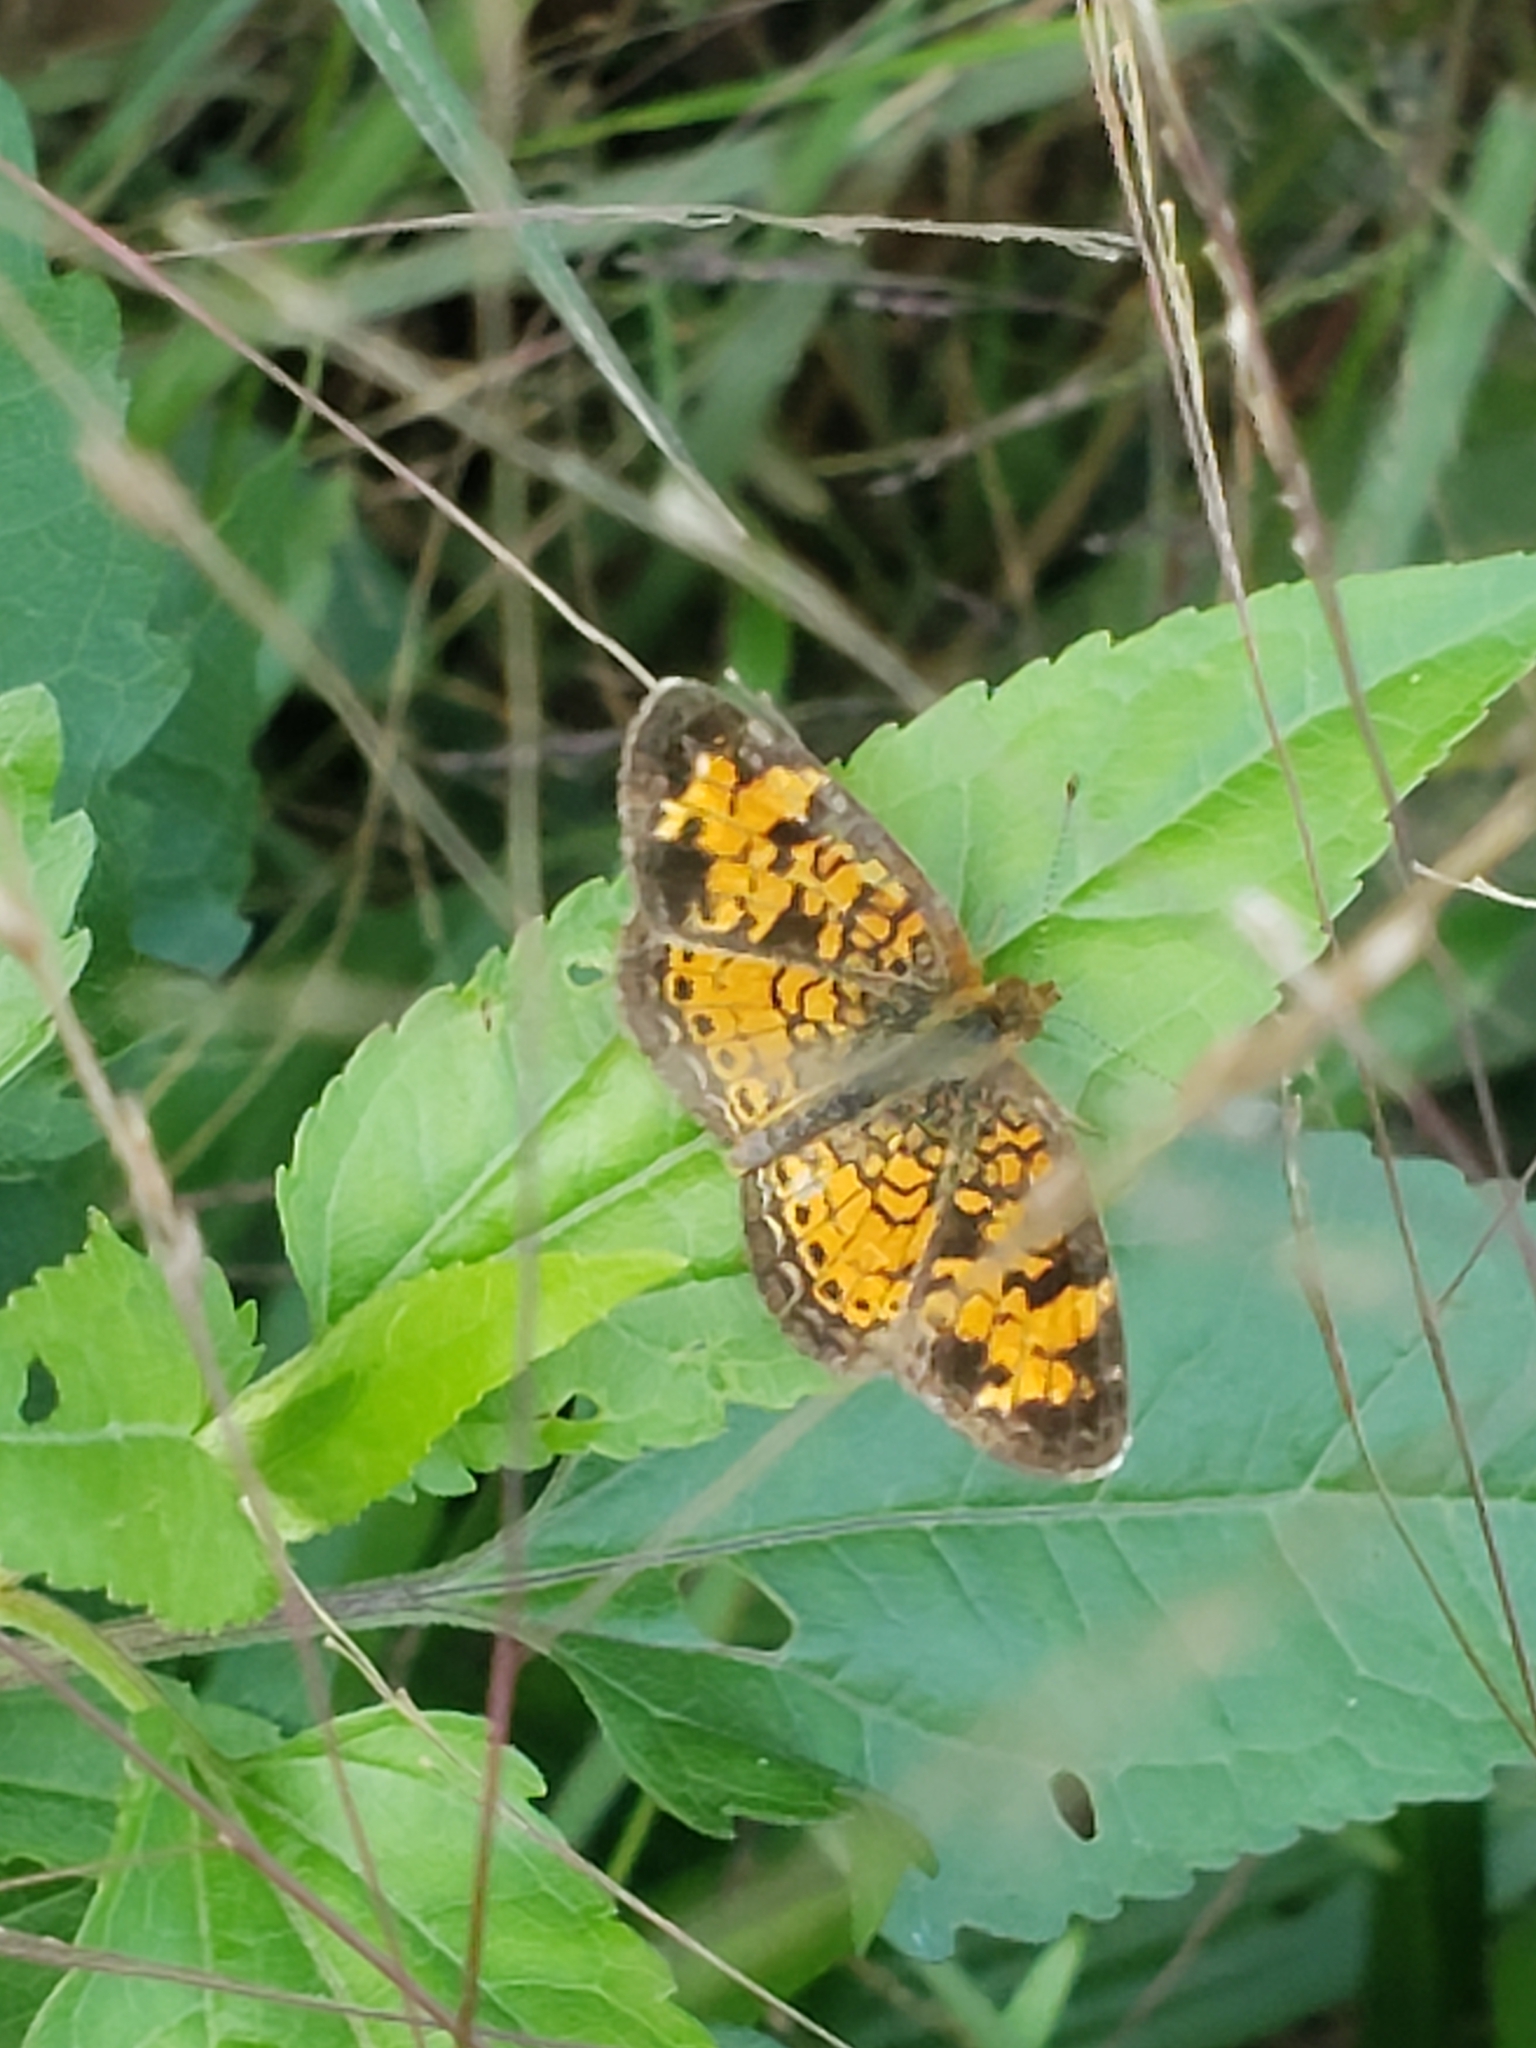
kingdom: Animalia
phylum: Arthropoda
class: Insecta
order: Lepidoptera
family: Nymphalidae
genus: Phyciodes
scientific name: Phyciodes tharos
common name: Pearl crescent
